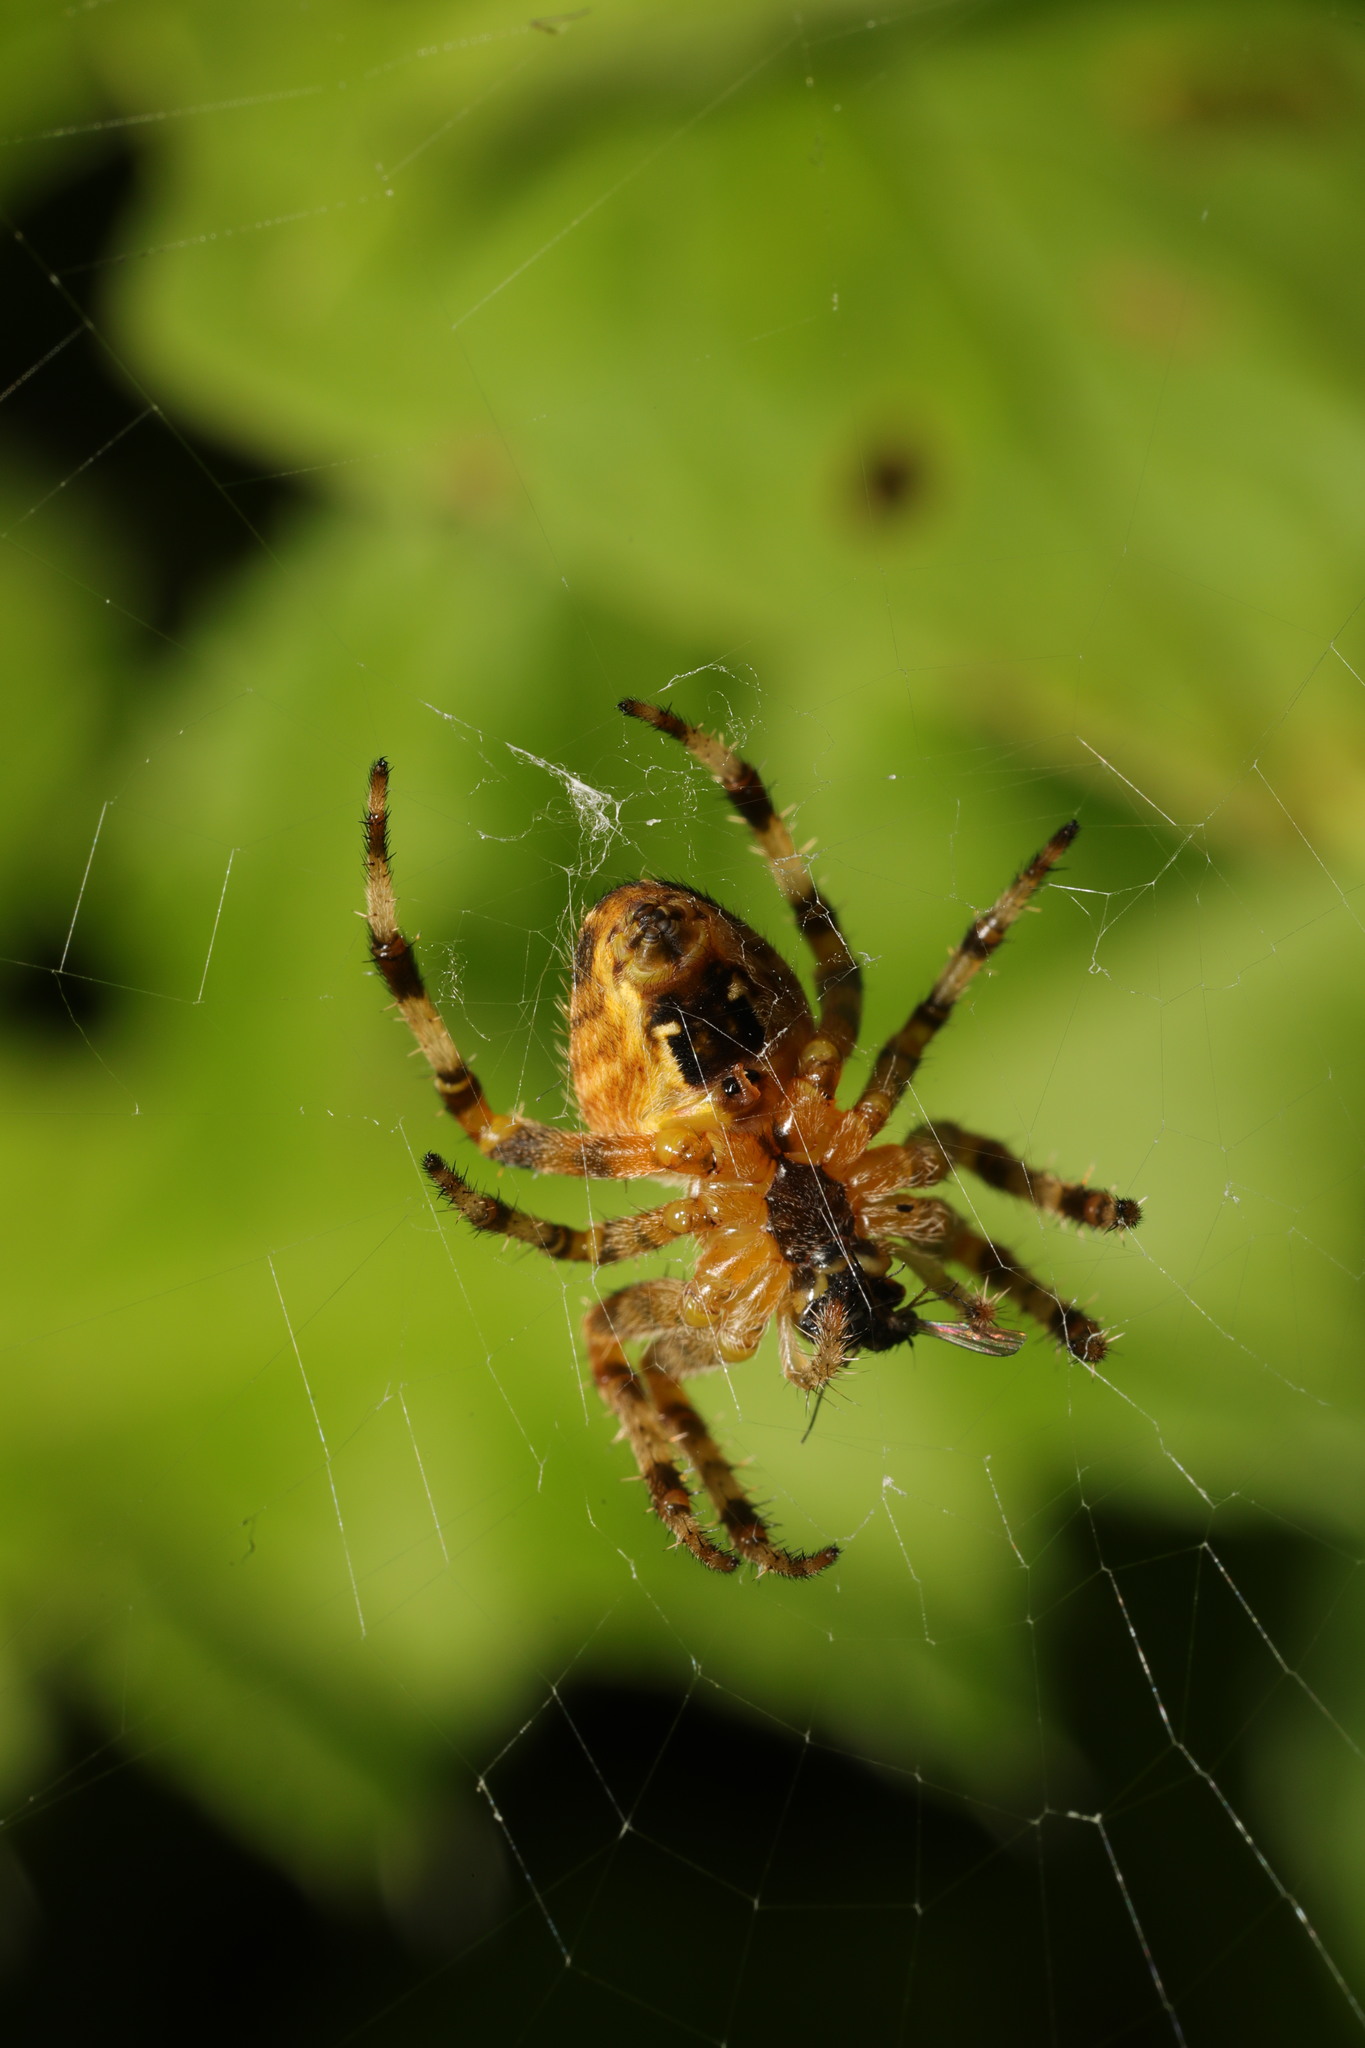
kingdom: Animalia
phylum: Arthropoda
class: Arachnida
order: Araneae
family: Araneidae
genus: Araneus
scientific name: Araneus diadematus
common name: Cross orbweaver
